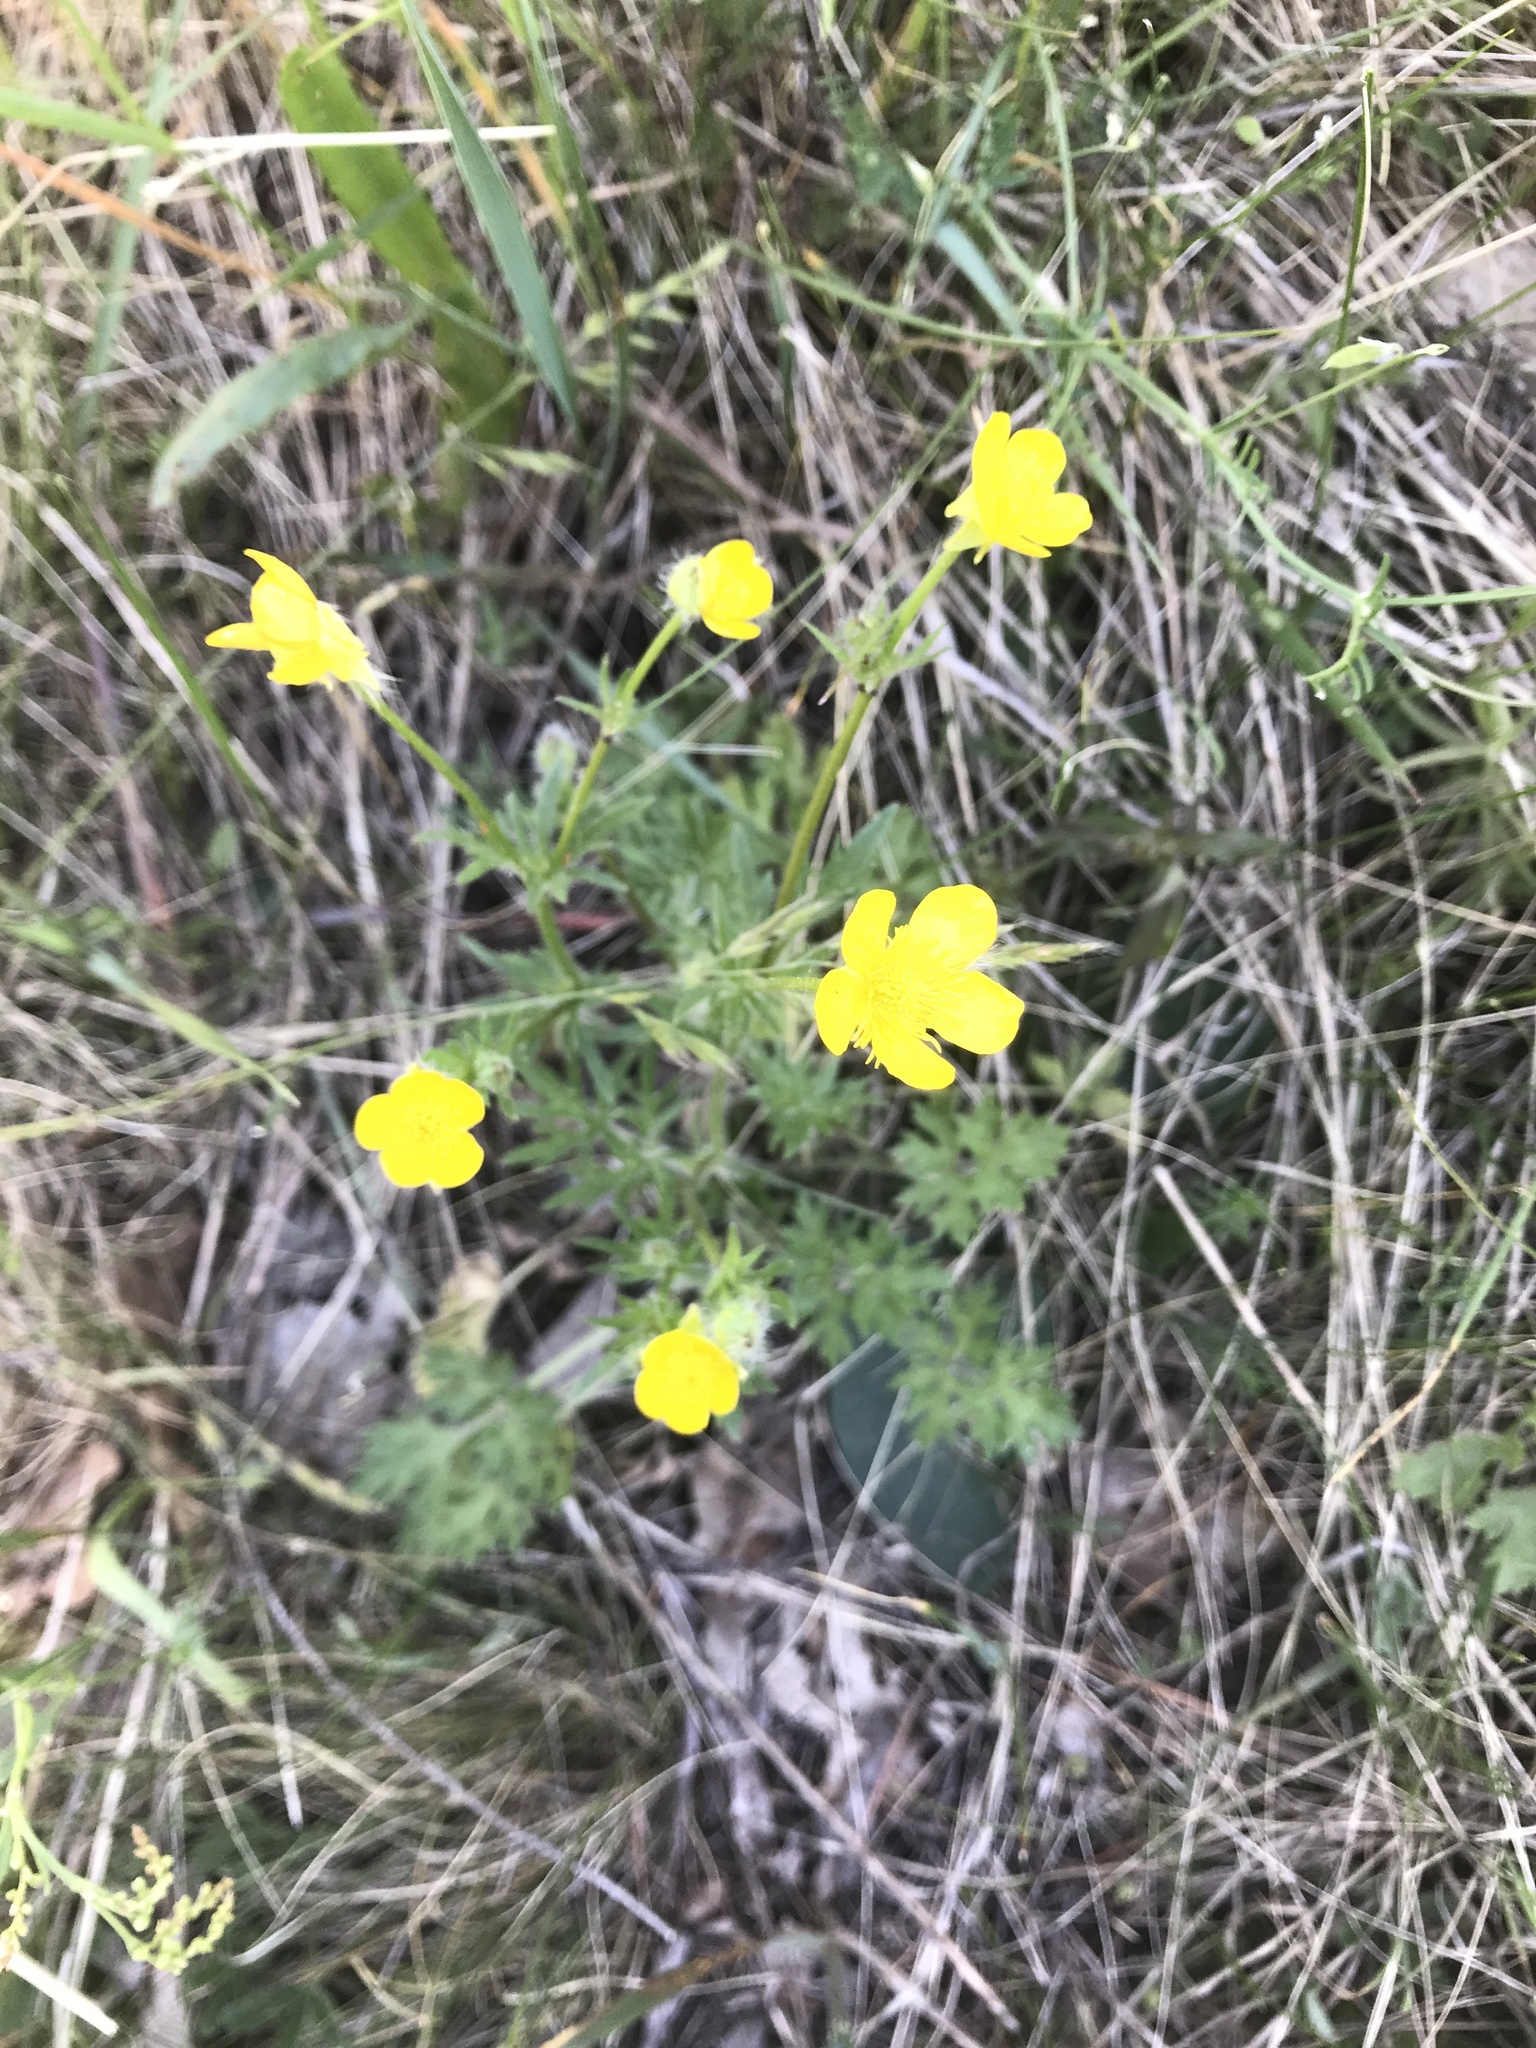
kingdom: Plantae
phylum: Tracheophyta
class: Magnoliopsida
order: Ranunculales
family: Ranunculaceae
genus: Ranunculus
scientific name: Ranunculus bulbosus
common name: Bulbous buttercup
